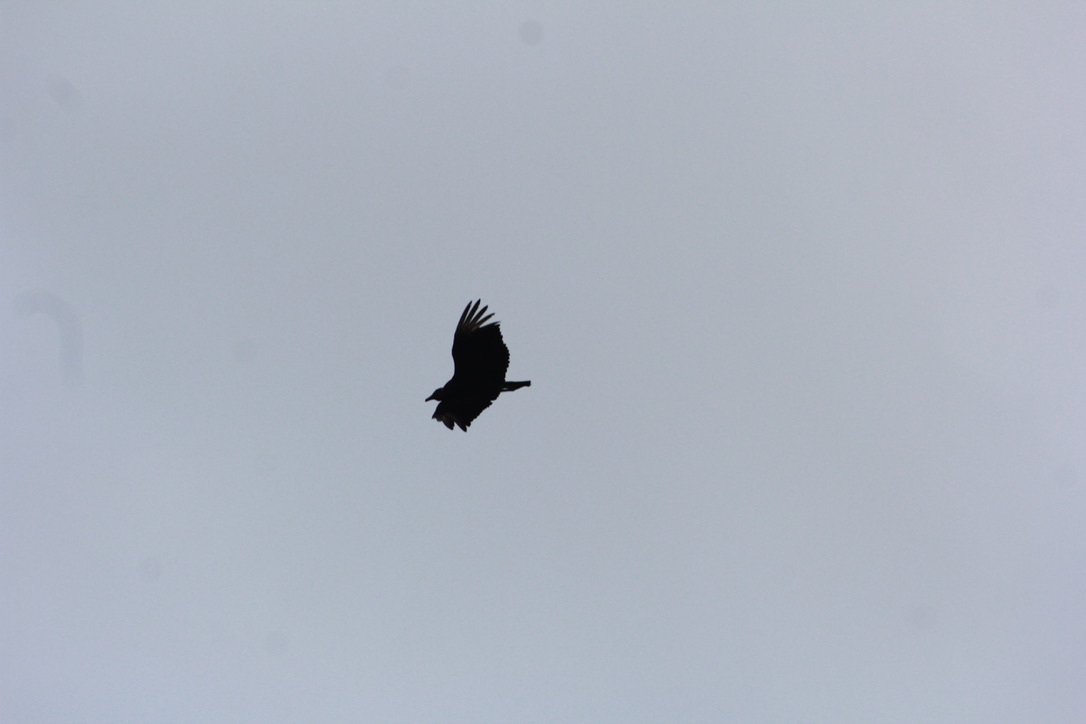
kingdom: Animalia
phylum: Chordata
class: Aves
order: Accipitriformes
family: Cathartidae
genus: Coragyps
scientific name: Coragyps atratus
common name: Black vulture
